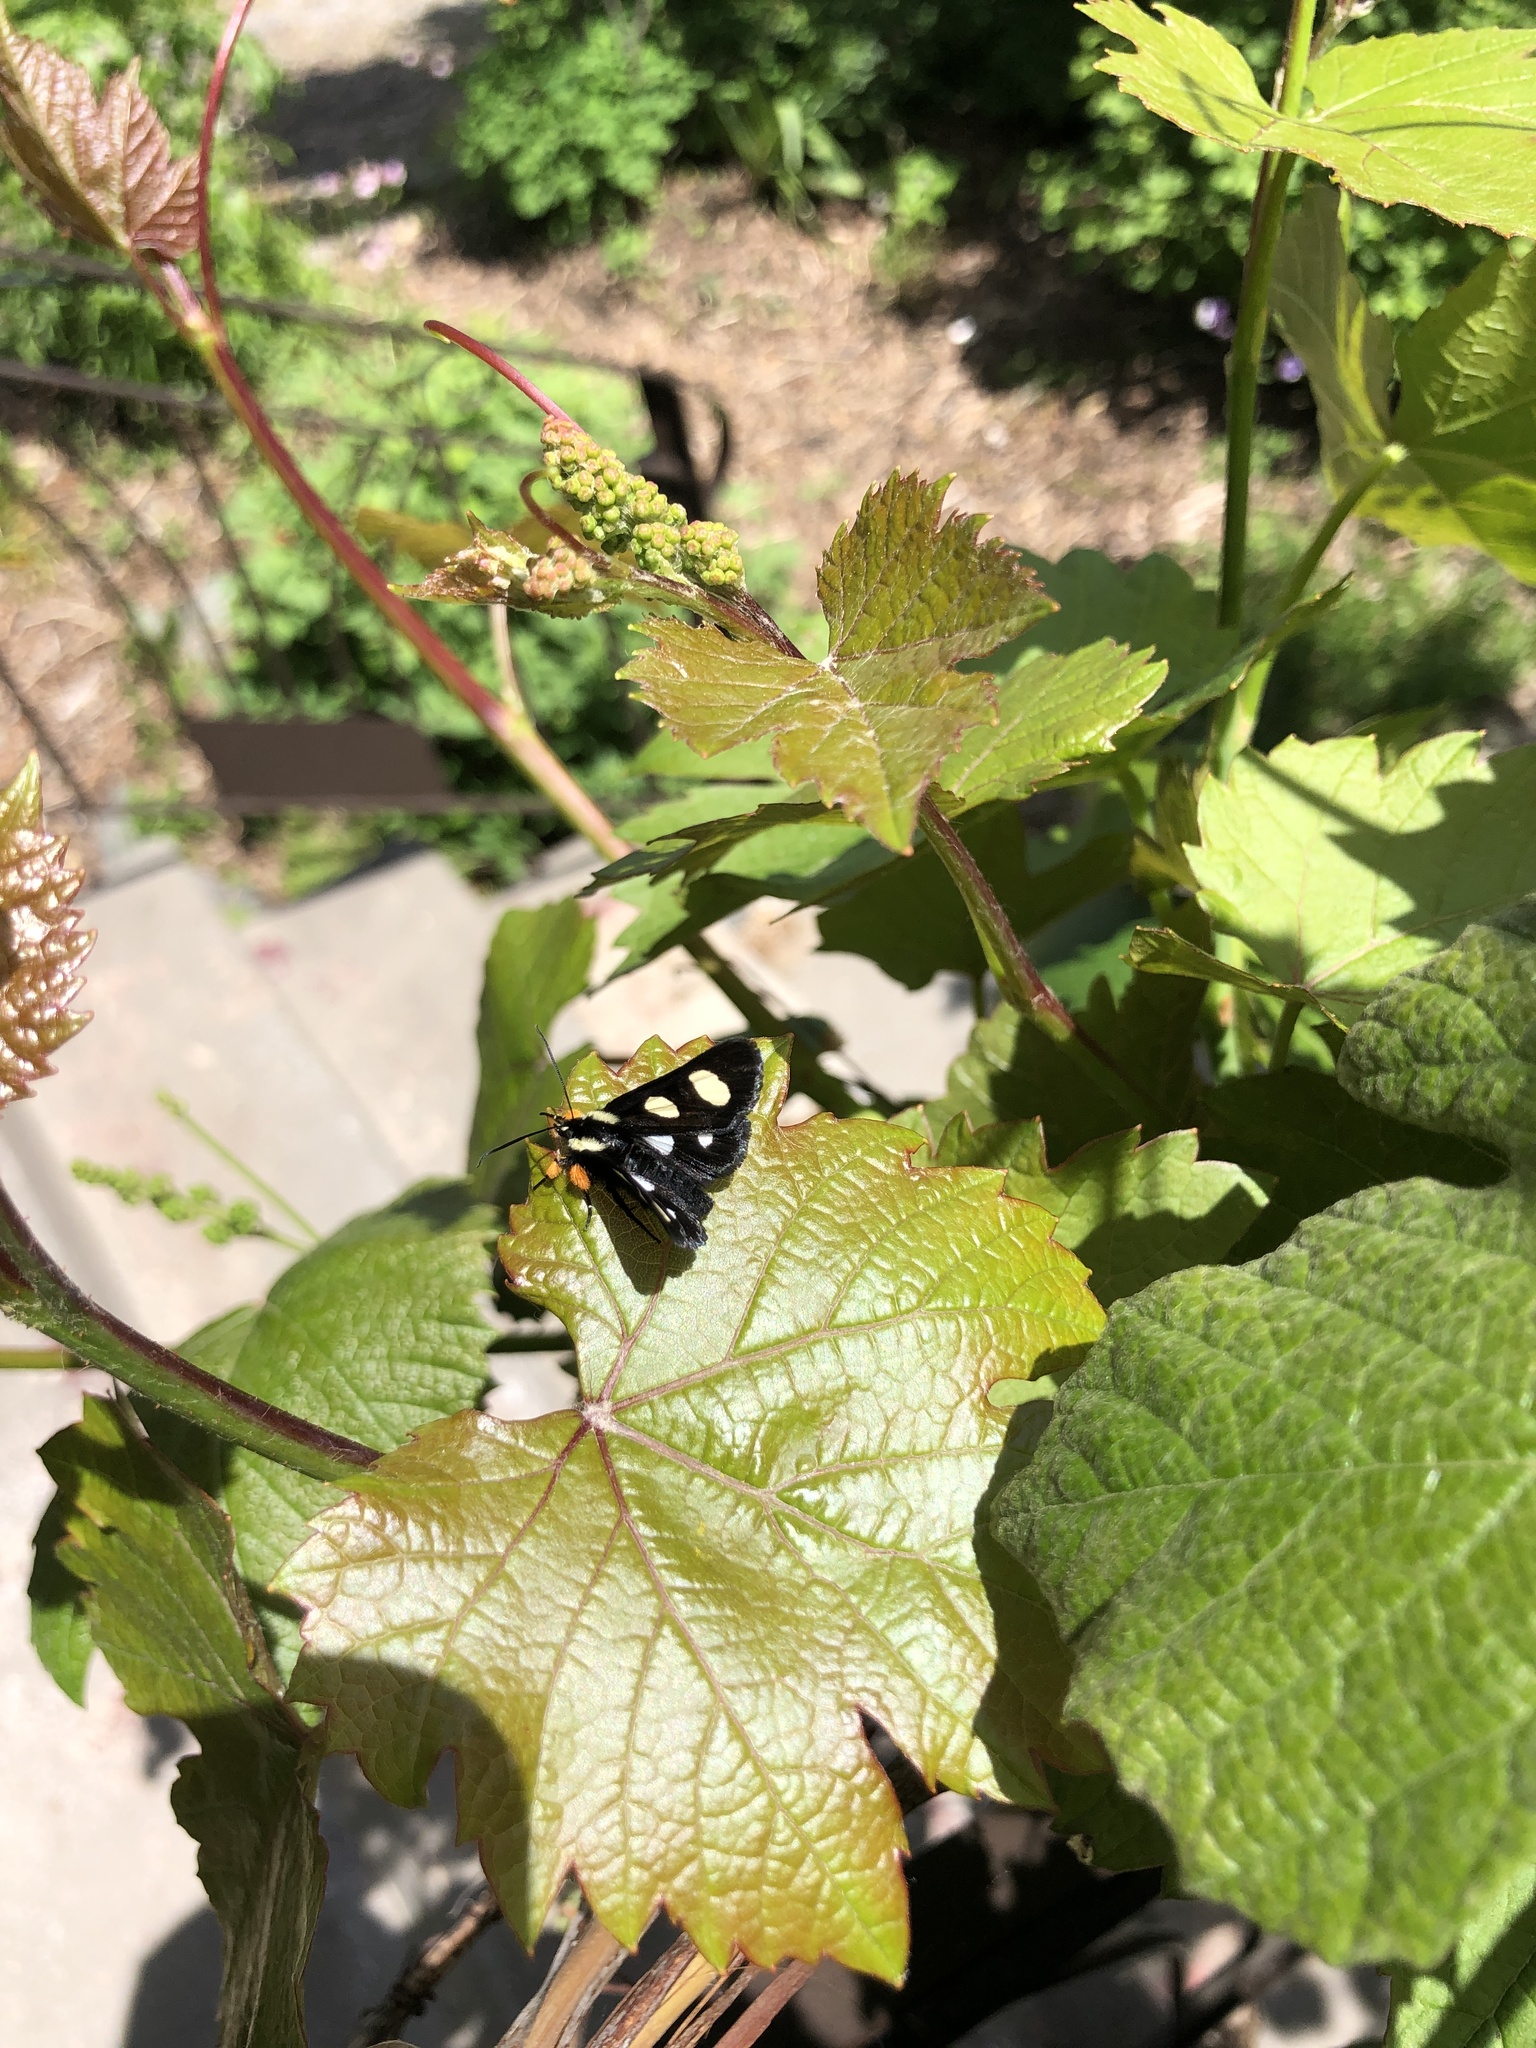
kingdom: Animalia
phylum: Arthropoda
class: Insecta
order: Lepidoptera
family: Noctuidae
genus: Alypia
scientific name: Alypia octomaculata
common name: Eight-spotted forester
